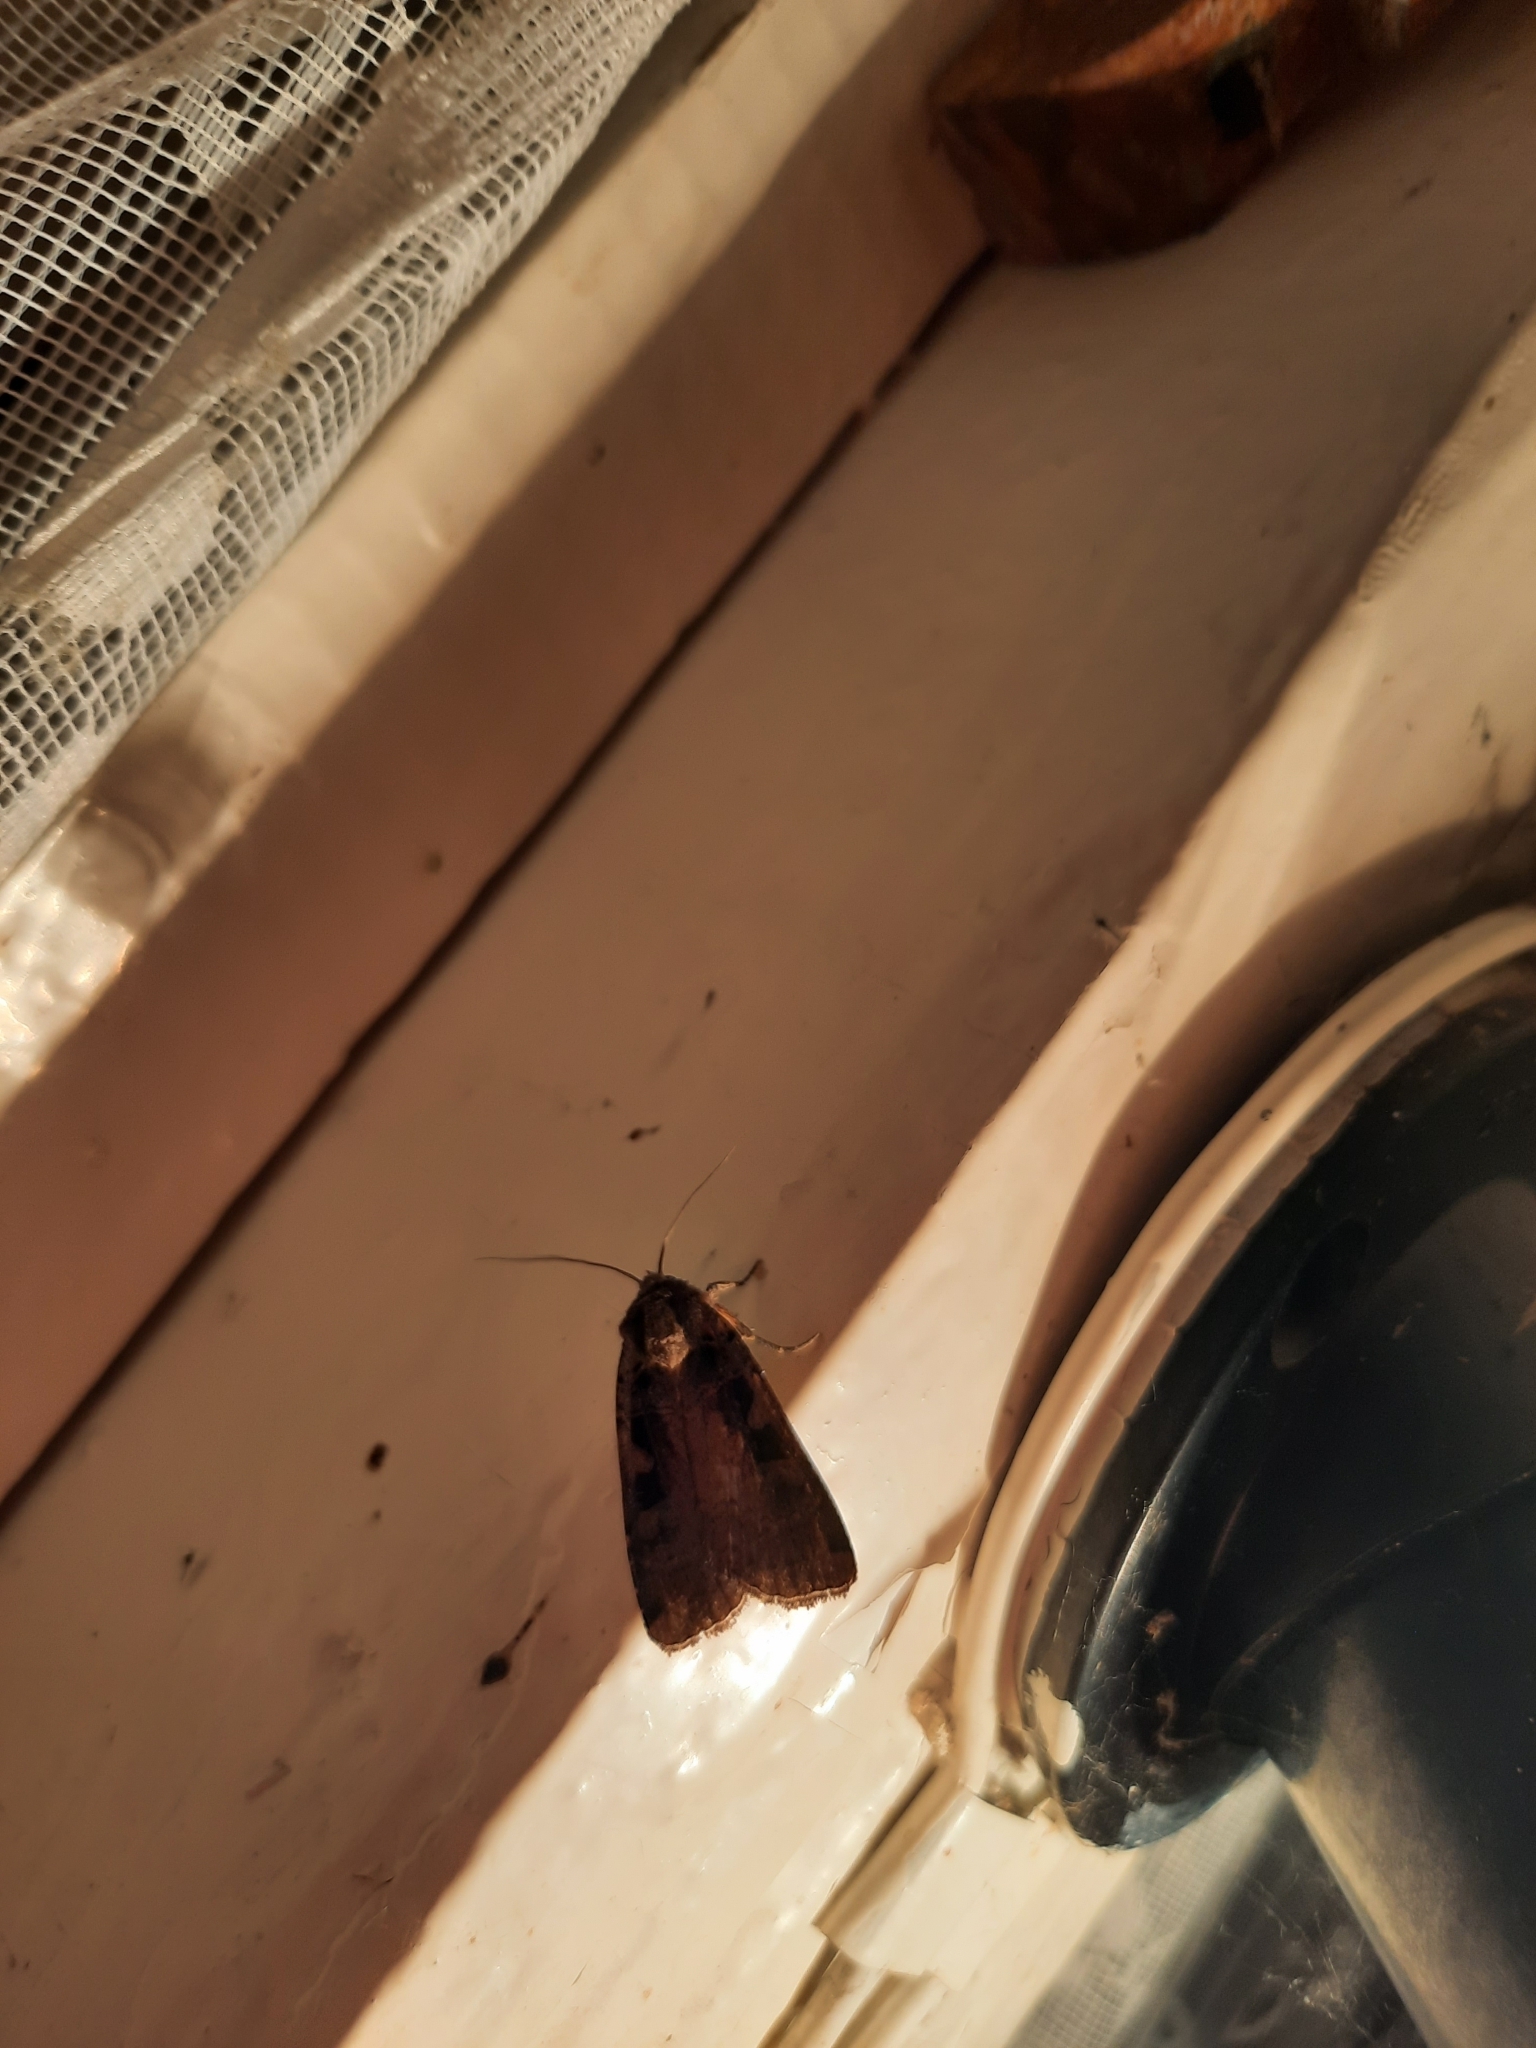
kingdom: Animalia
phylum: Arthropoda
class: Insecta
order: Lepidoptera
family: Noctuidae
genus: Xestia
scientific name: Xestia ditrapezium
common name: Triple-spotted clay
